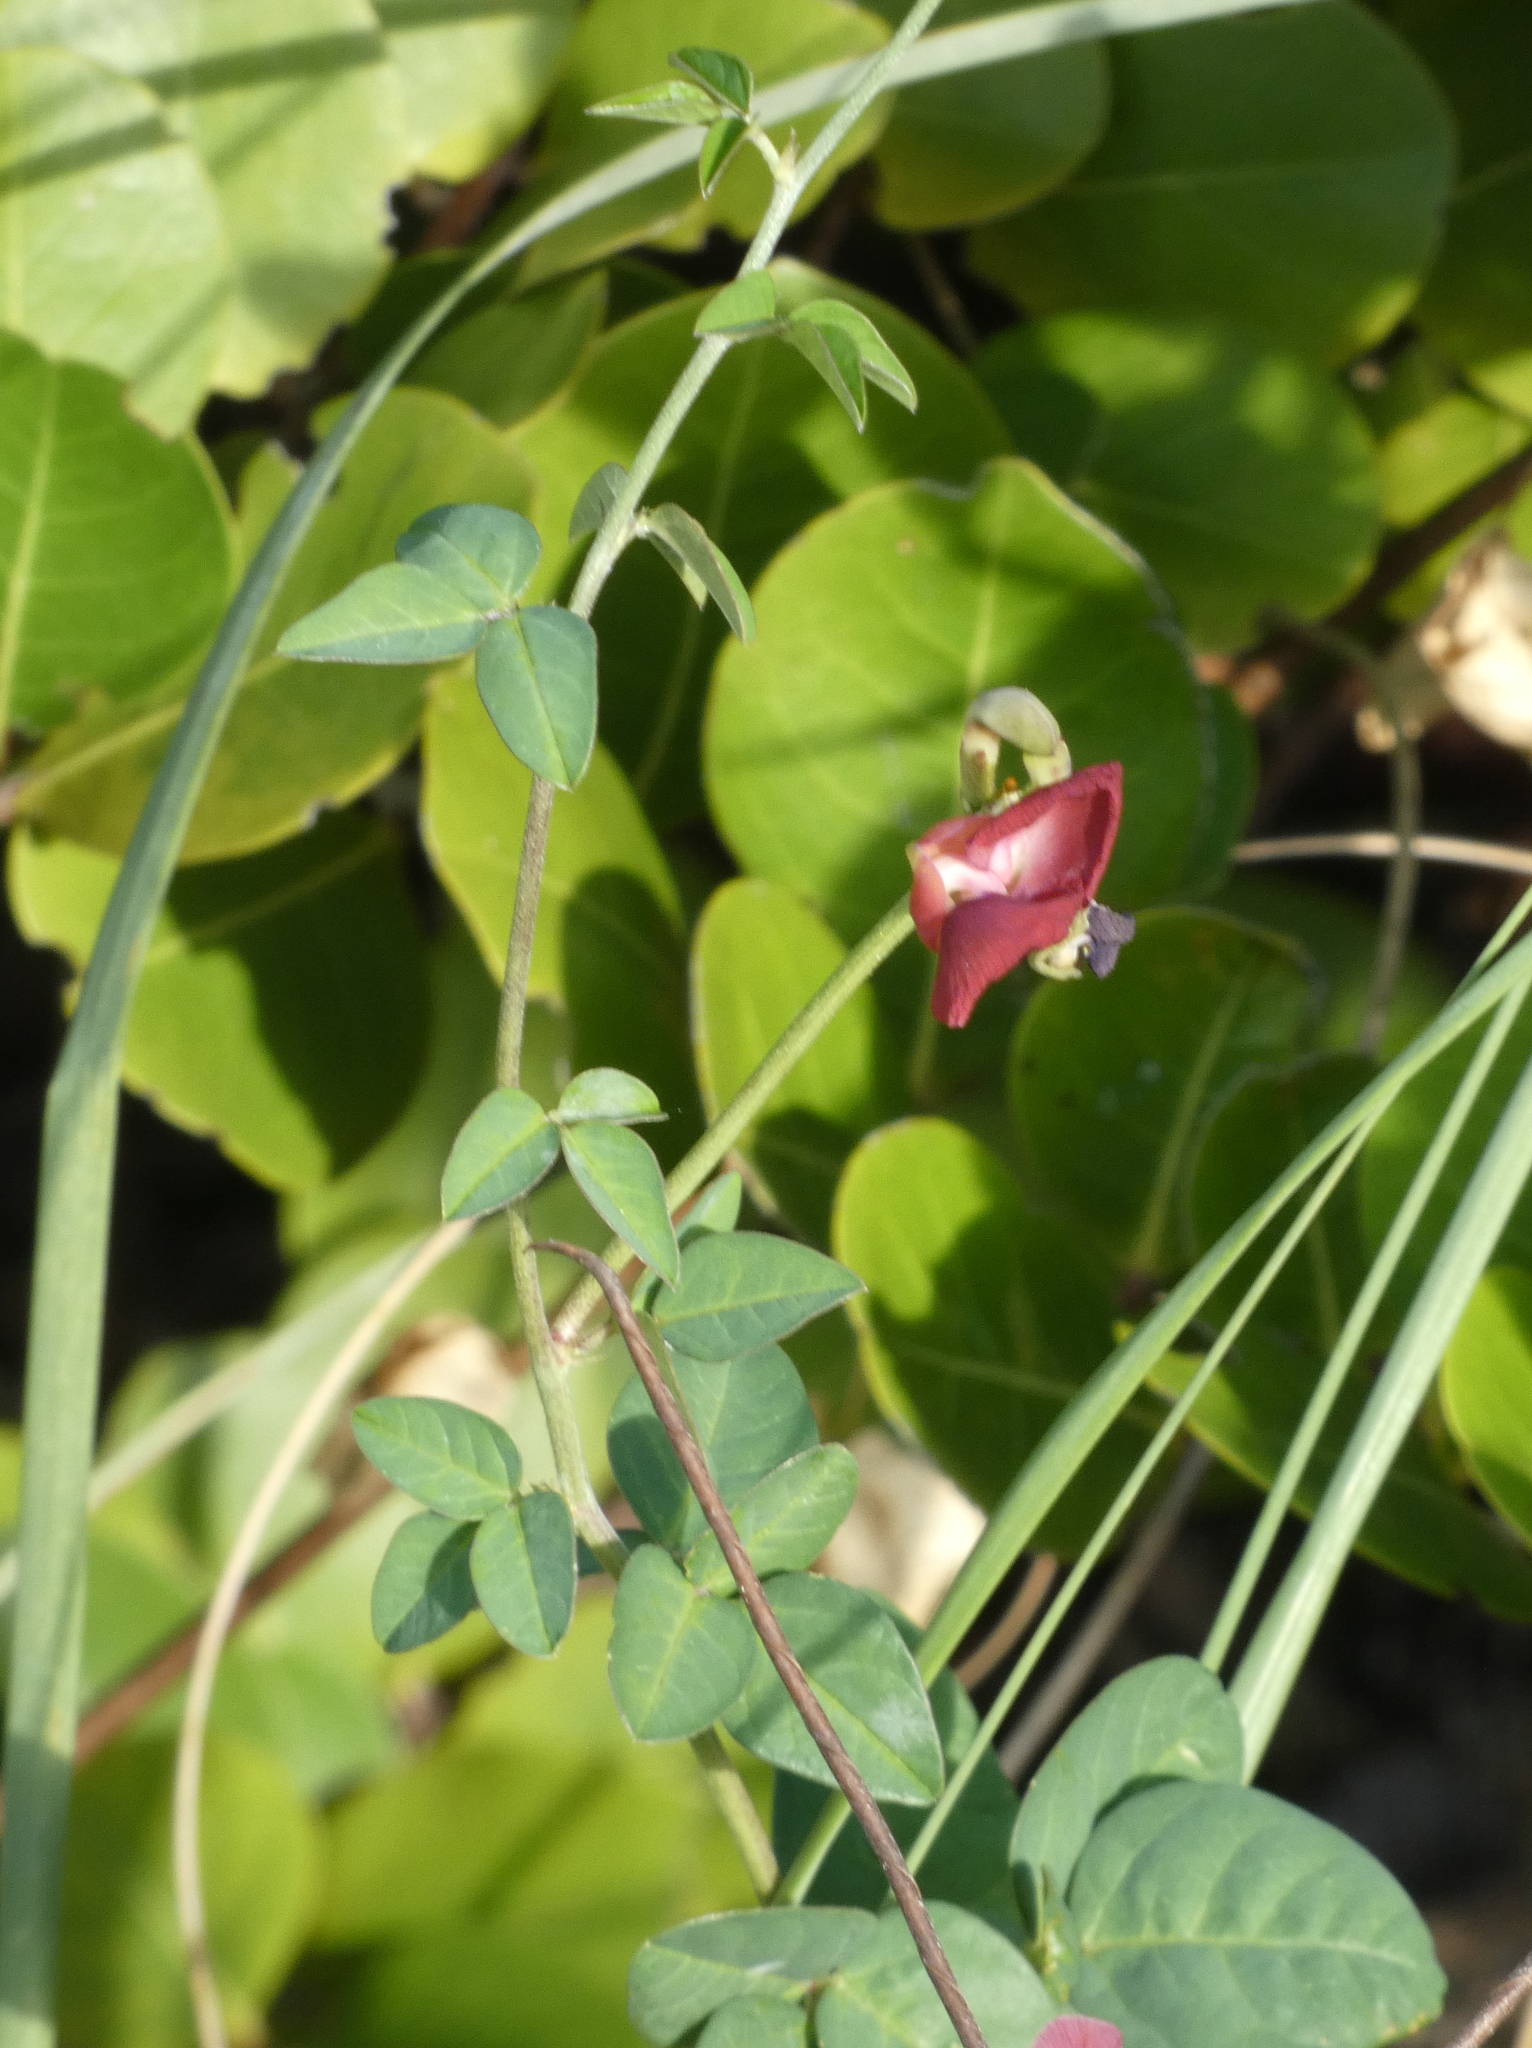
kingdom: Plantae
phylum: Tracheophyta
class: Magnoliopsida
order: Fabales
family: Fabaceae
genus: Macroptilium
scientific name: Macroptilium lathyroides
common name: Wild bushbean
